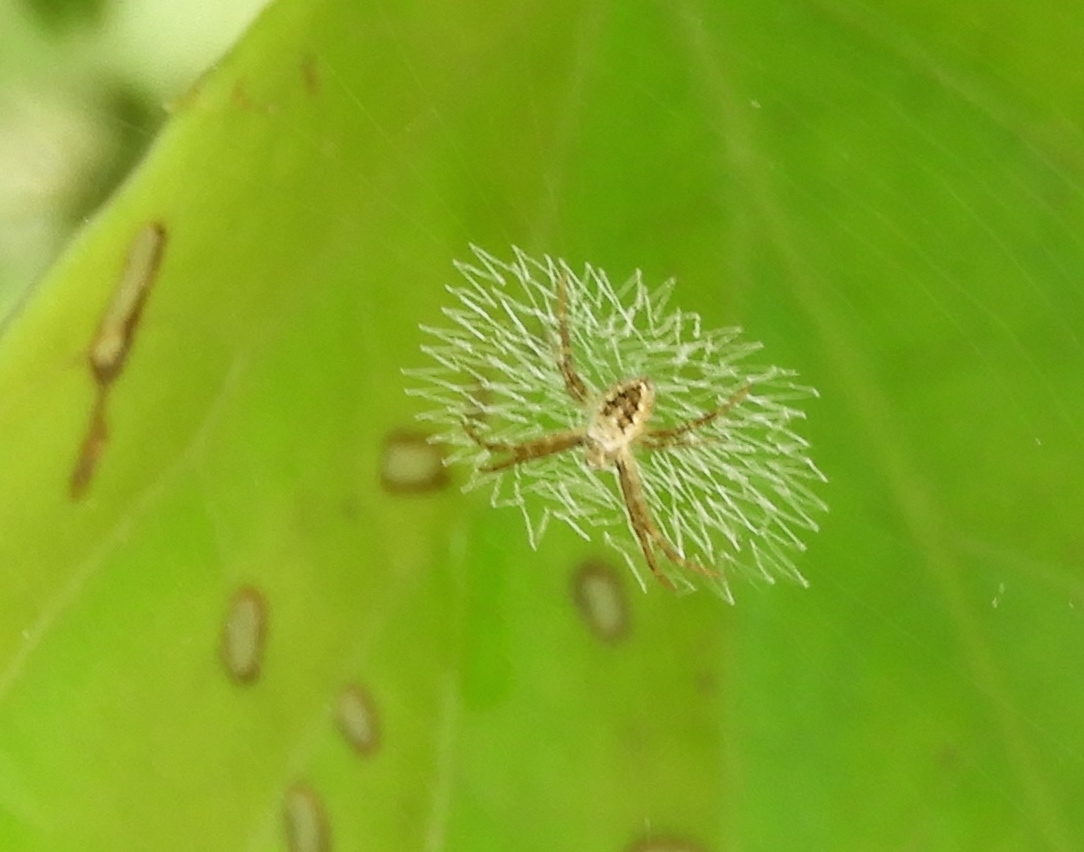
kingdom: Animalia
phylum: Arthropoda
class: Arachnida
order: Araneae
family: Araneidae
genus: Argiope
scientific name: Argiope
